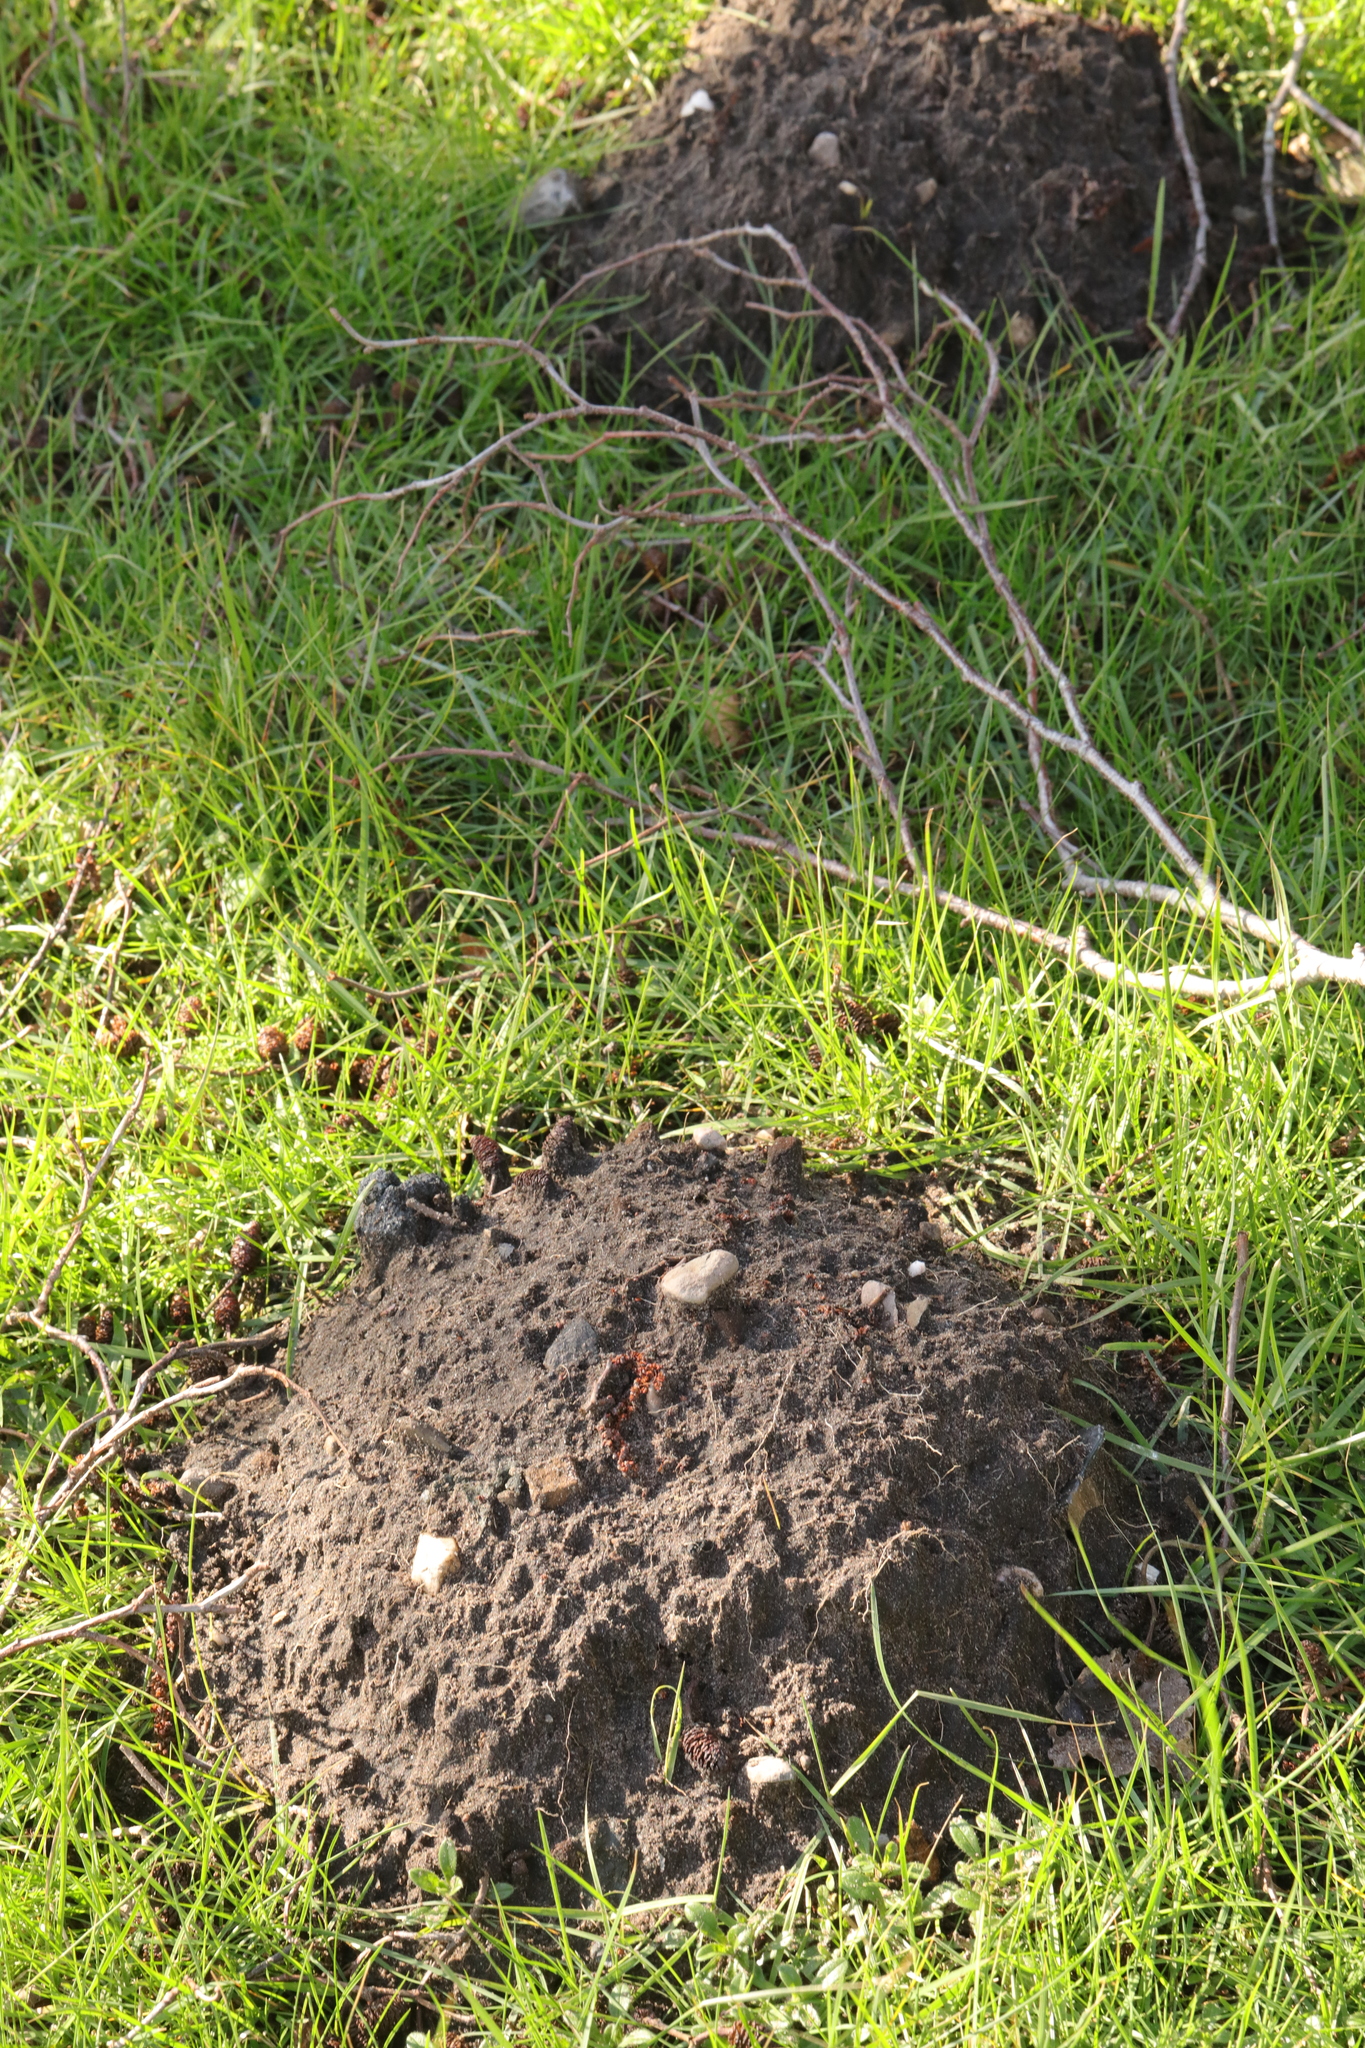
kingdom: Animalia
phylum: Chordata
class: Mammalia
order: Soricomorpha
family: Talpidae
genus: Talpa
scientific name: Talpa europaea
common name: European mole
